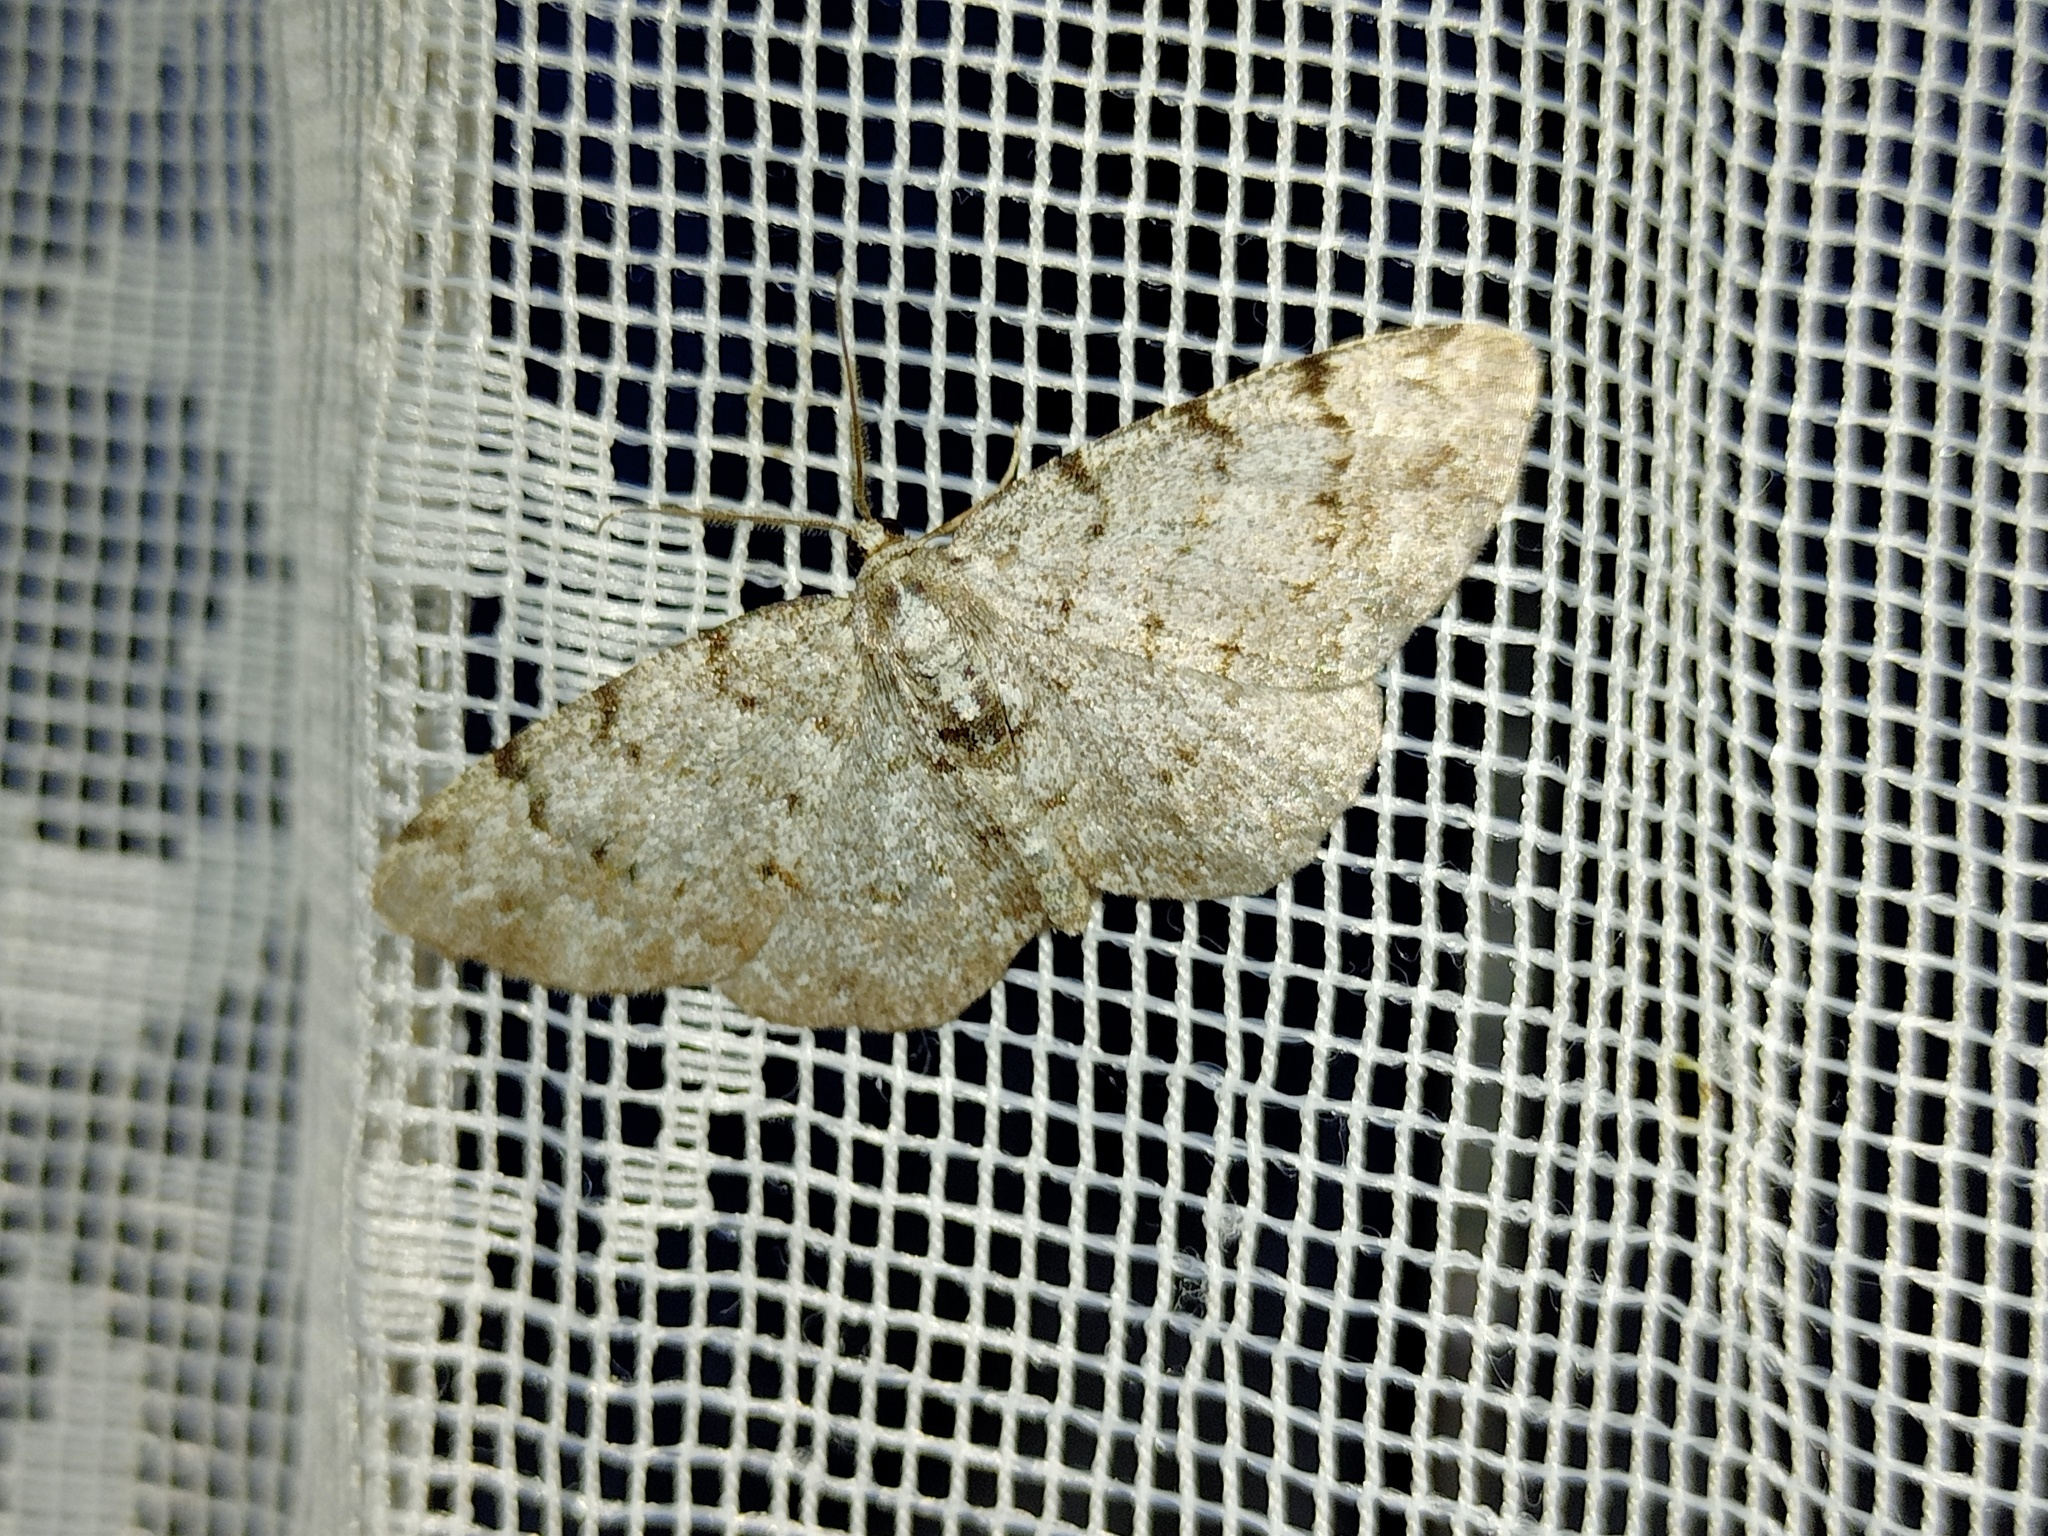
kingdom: Animalia
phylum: Arthropoda
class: Insecta
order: Lepidoptera
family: Geometridae
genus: Aethalura
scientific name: Aethalura punctulata
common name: Grey birch
